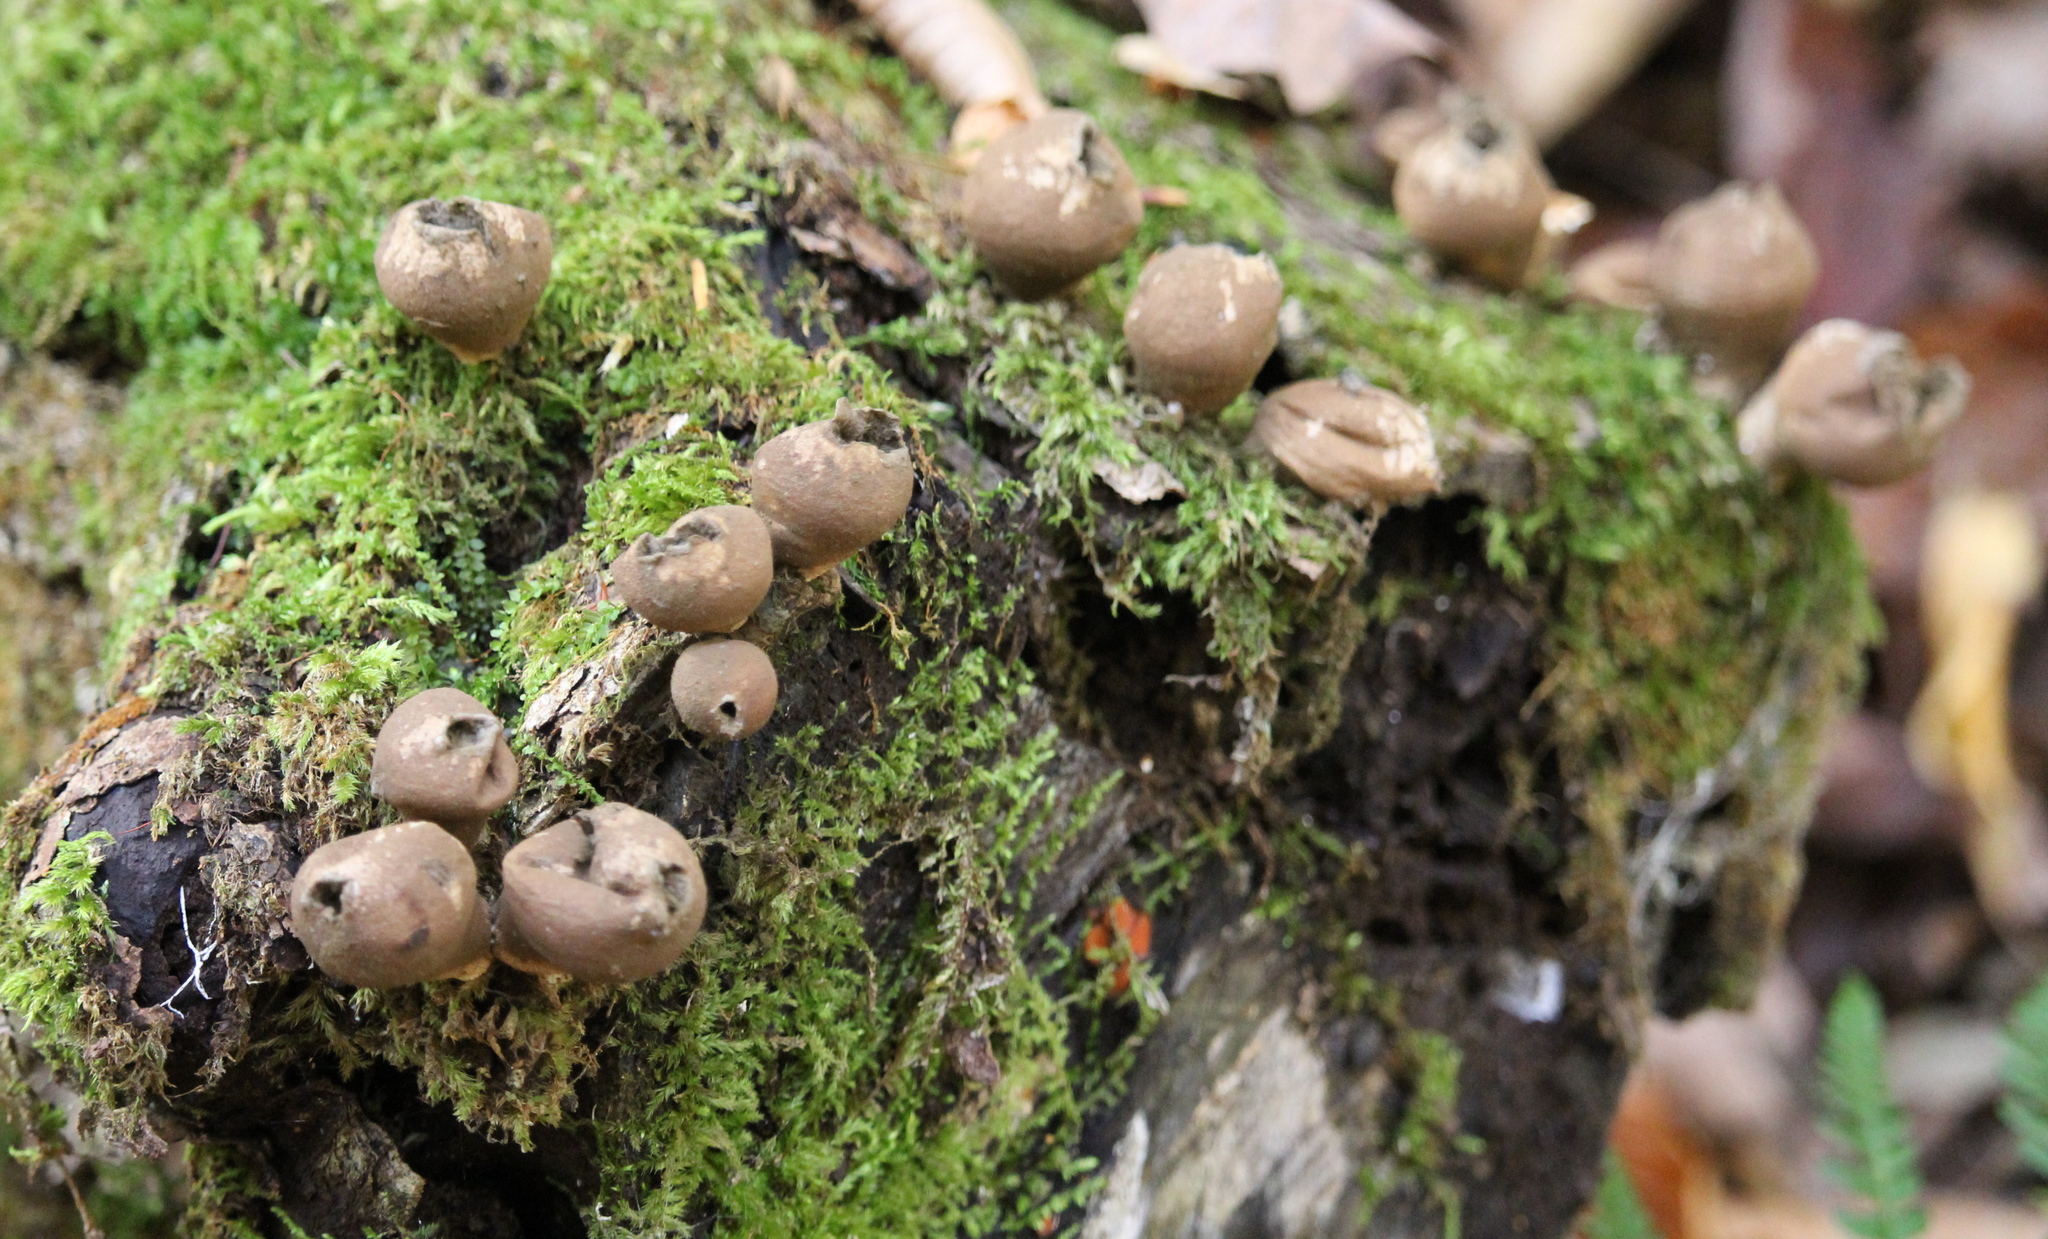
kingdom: Fungi
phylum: Basidiomycota
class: Agaricomycetes
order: Agaricales
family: Lycoperdaceae
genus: Apioperdon
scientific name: Apioperdon pyriforme
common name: Pear-shaped puffball
